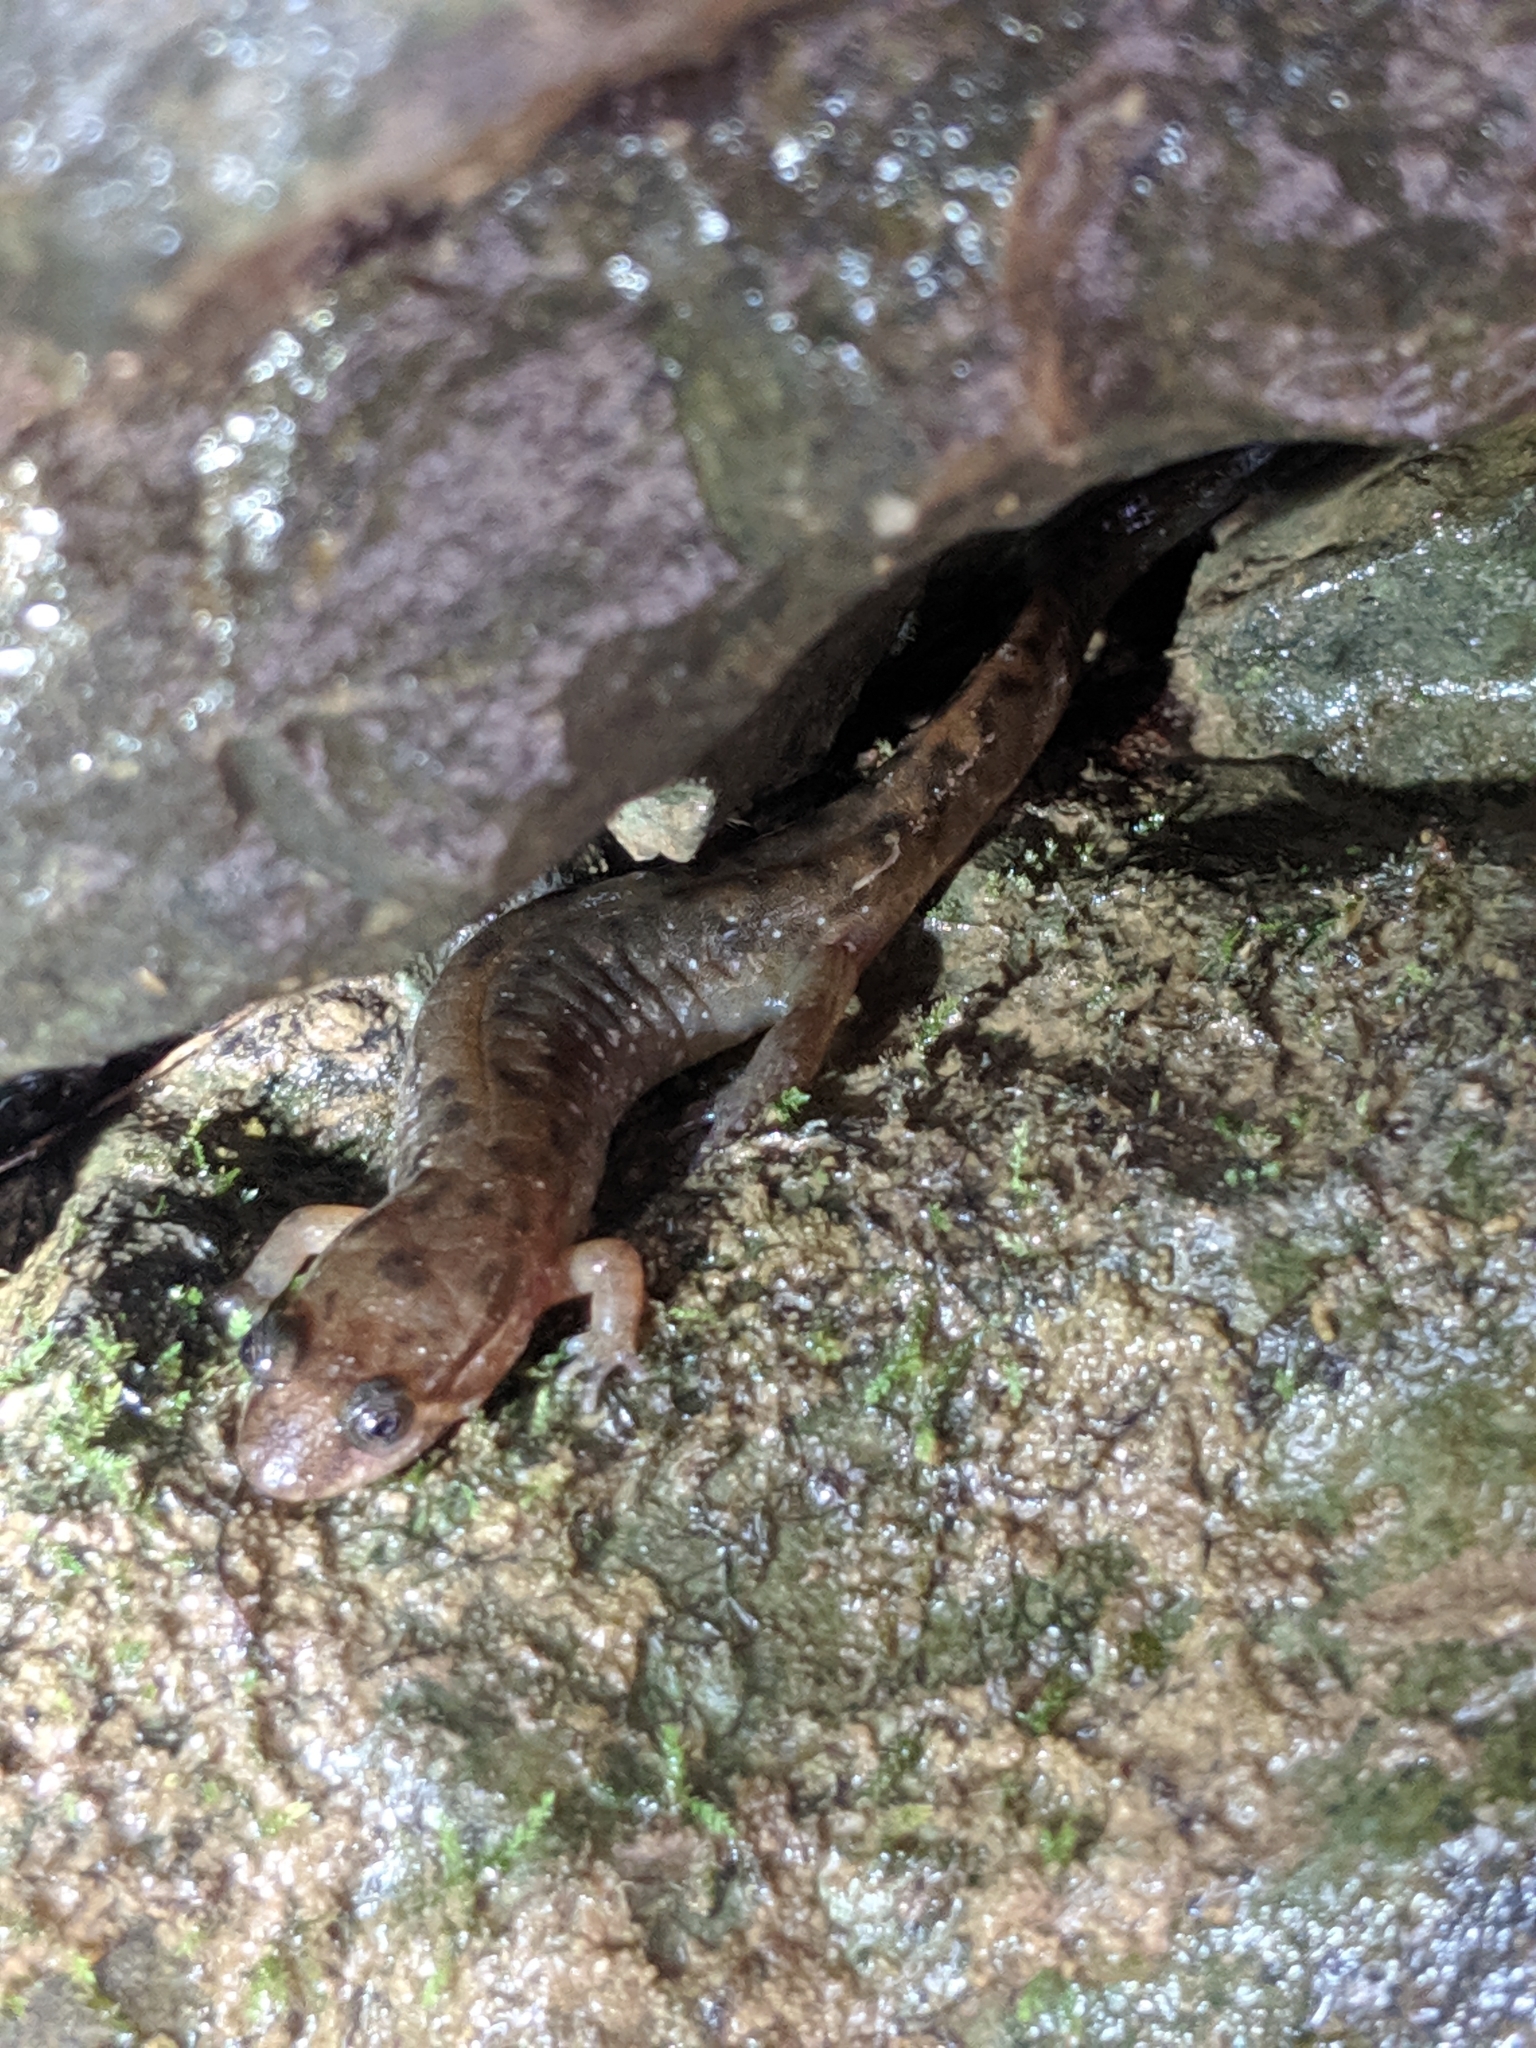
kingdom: Animalia
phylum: Chordata
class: Amphibia
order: Caudata
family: Plethodontidae
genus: Desmognathus
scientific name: Desmognathus monticola
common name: Seal salamander
